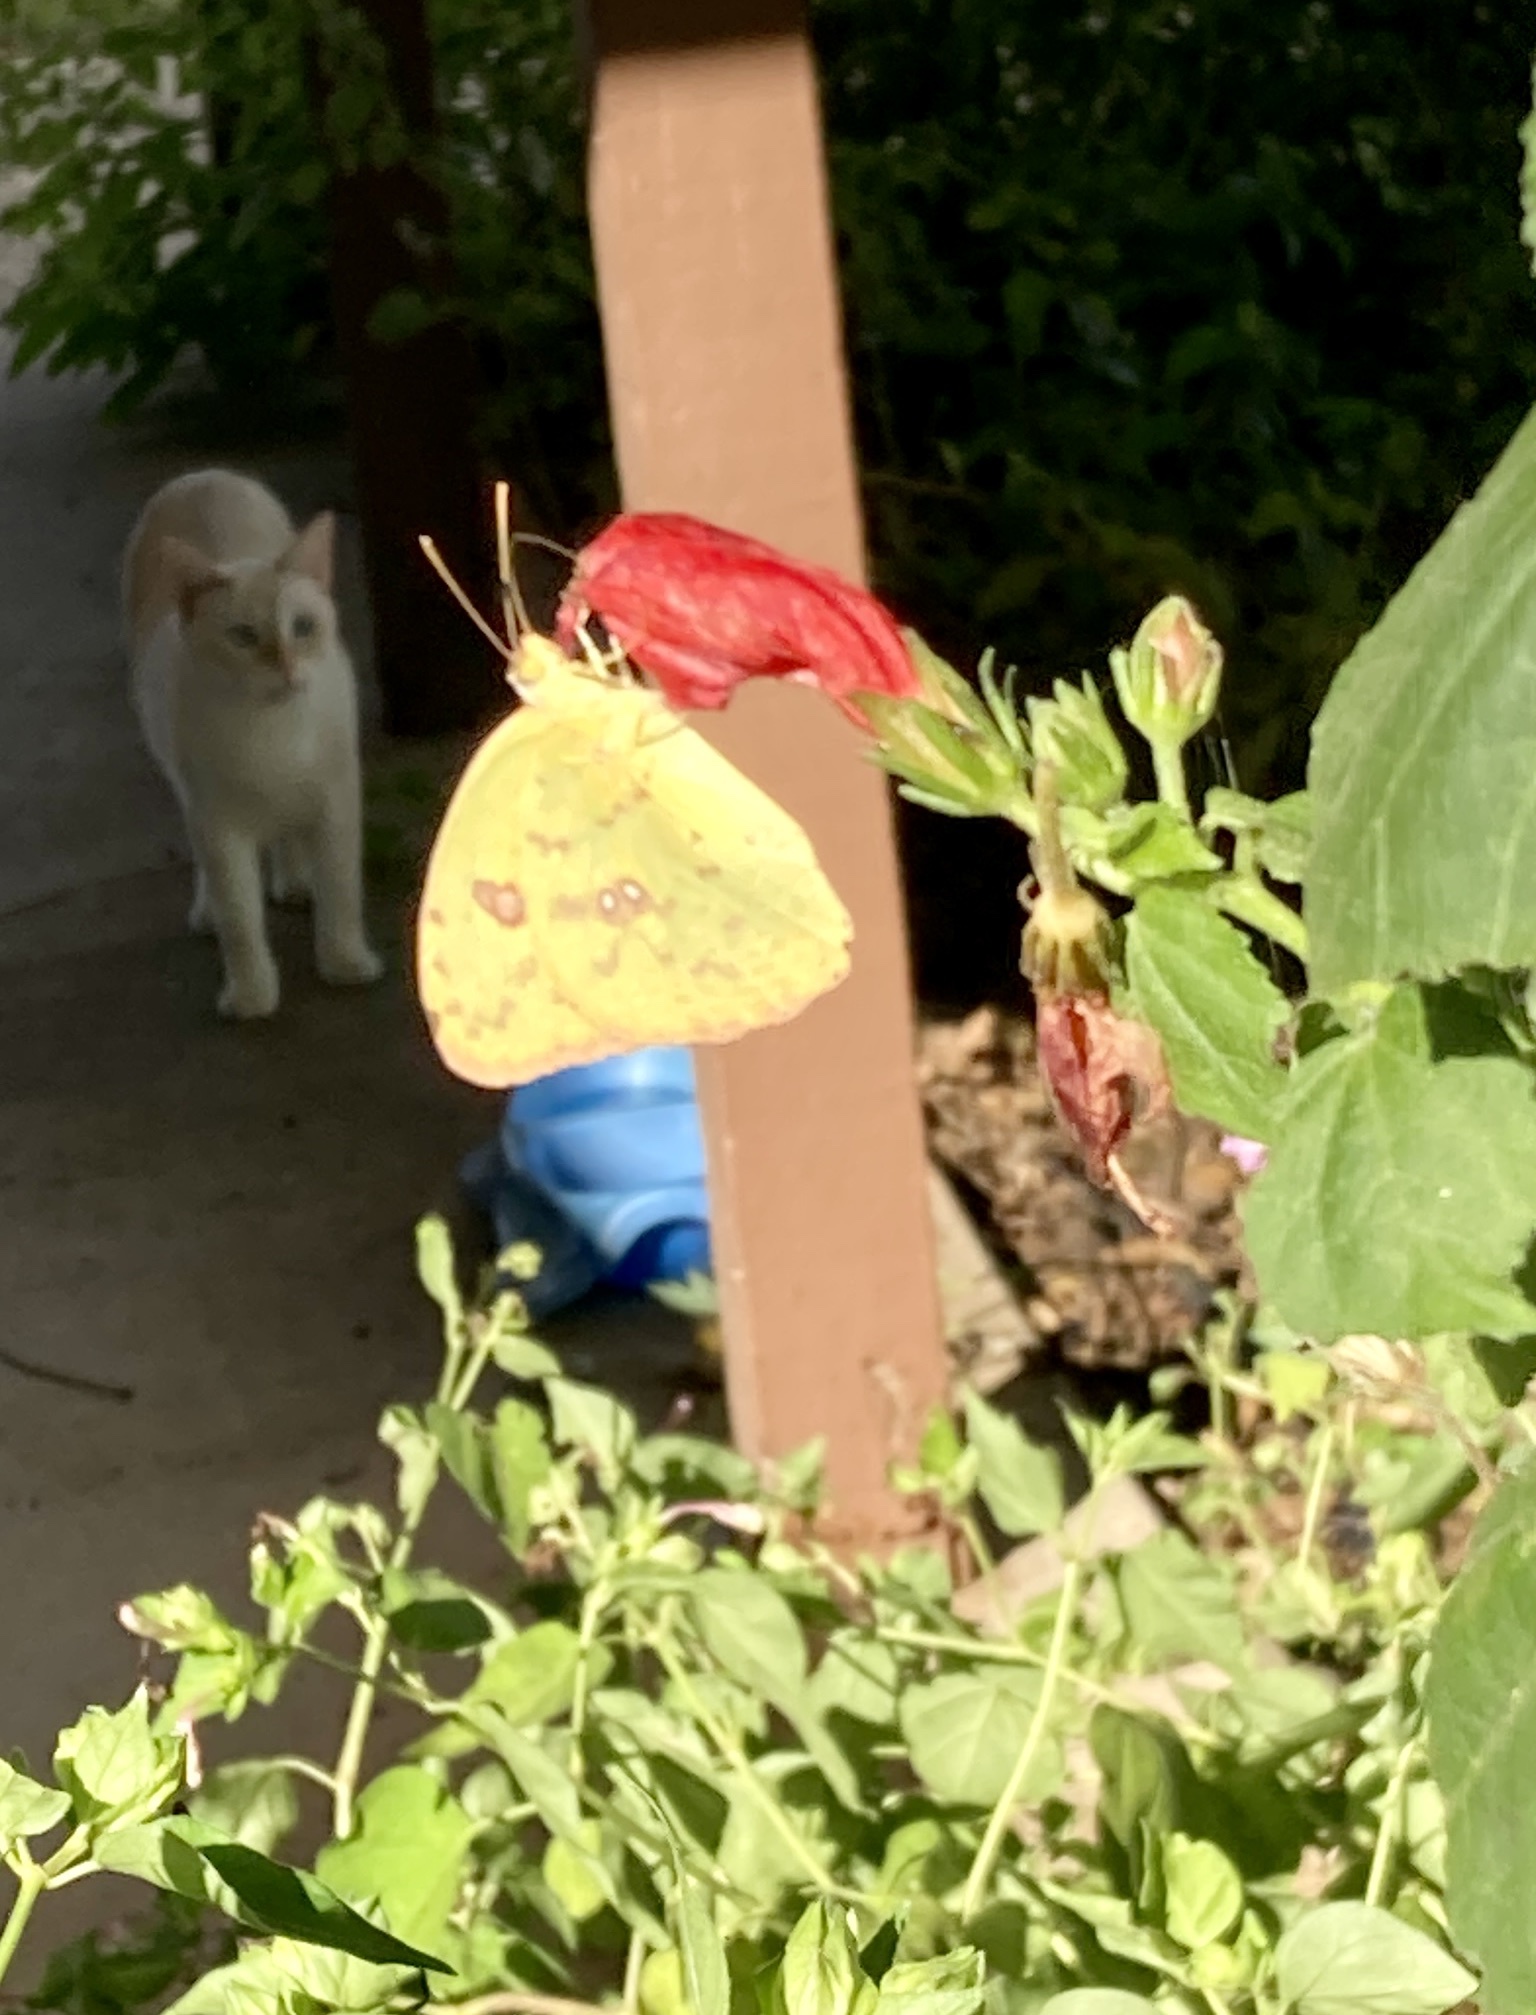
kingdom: Animalia
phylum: Arthropoda
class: Insecta
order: Lepidoptera
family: Pieridae
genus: Phoebis
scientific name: Phoebis sennae
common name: Cloudless sulphur
